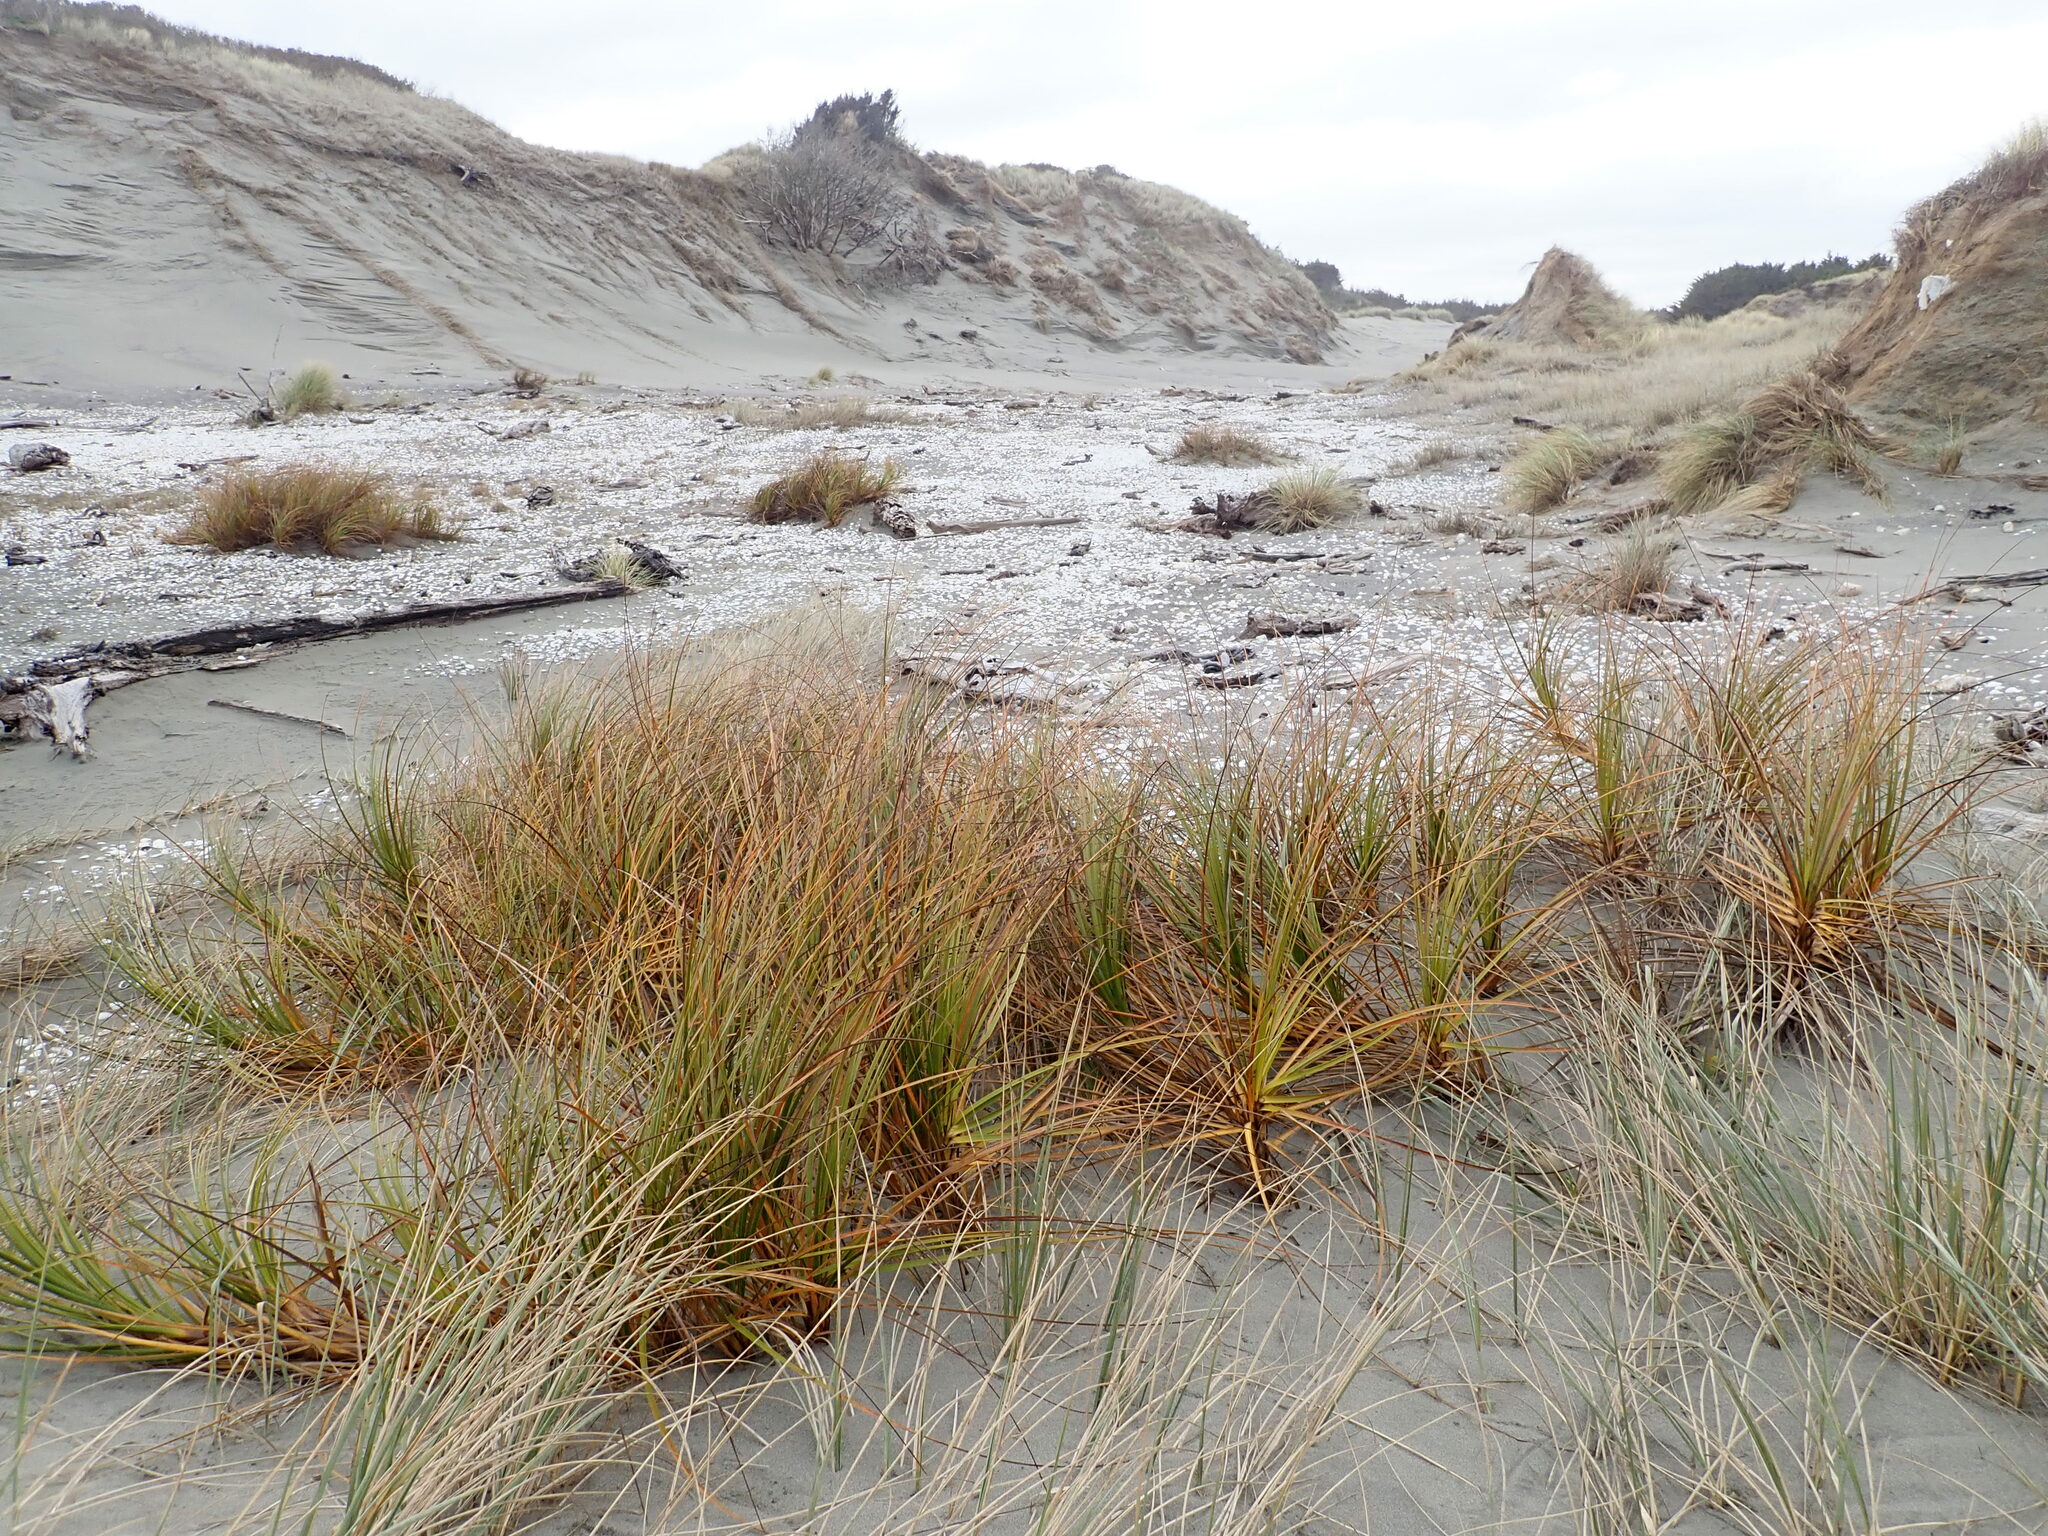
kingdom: Plantae
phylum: Tracheophyta
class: Liliopsida
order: Poales
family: Cyperaceae
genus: Ficinia
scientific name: Ficinia spiralis
